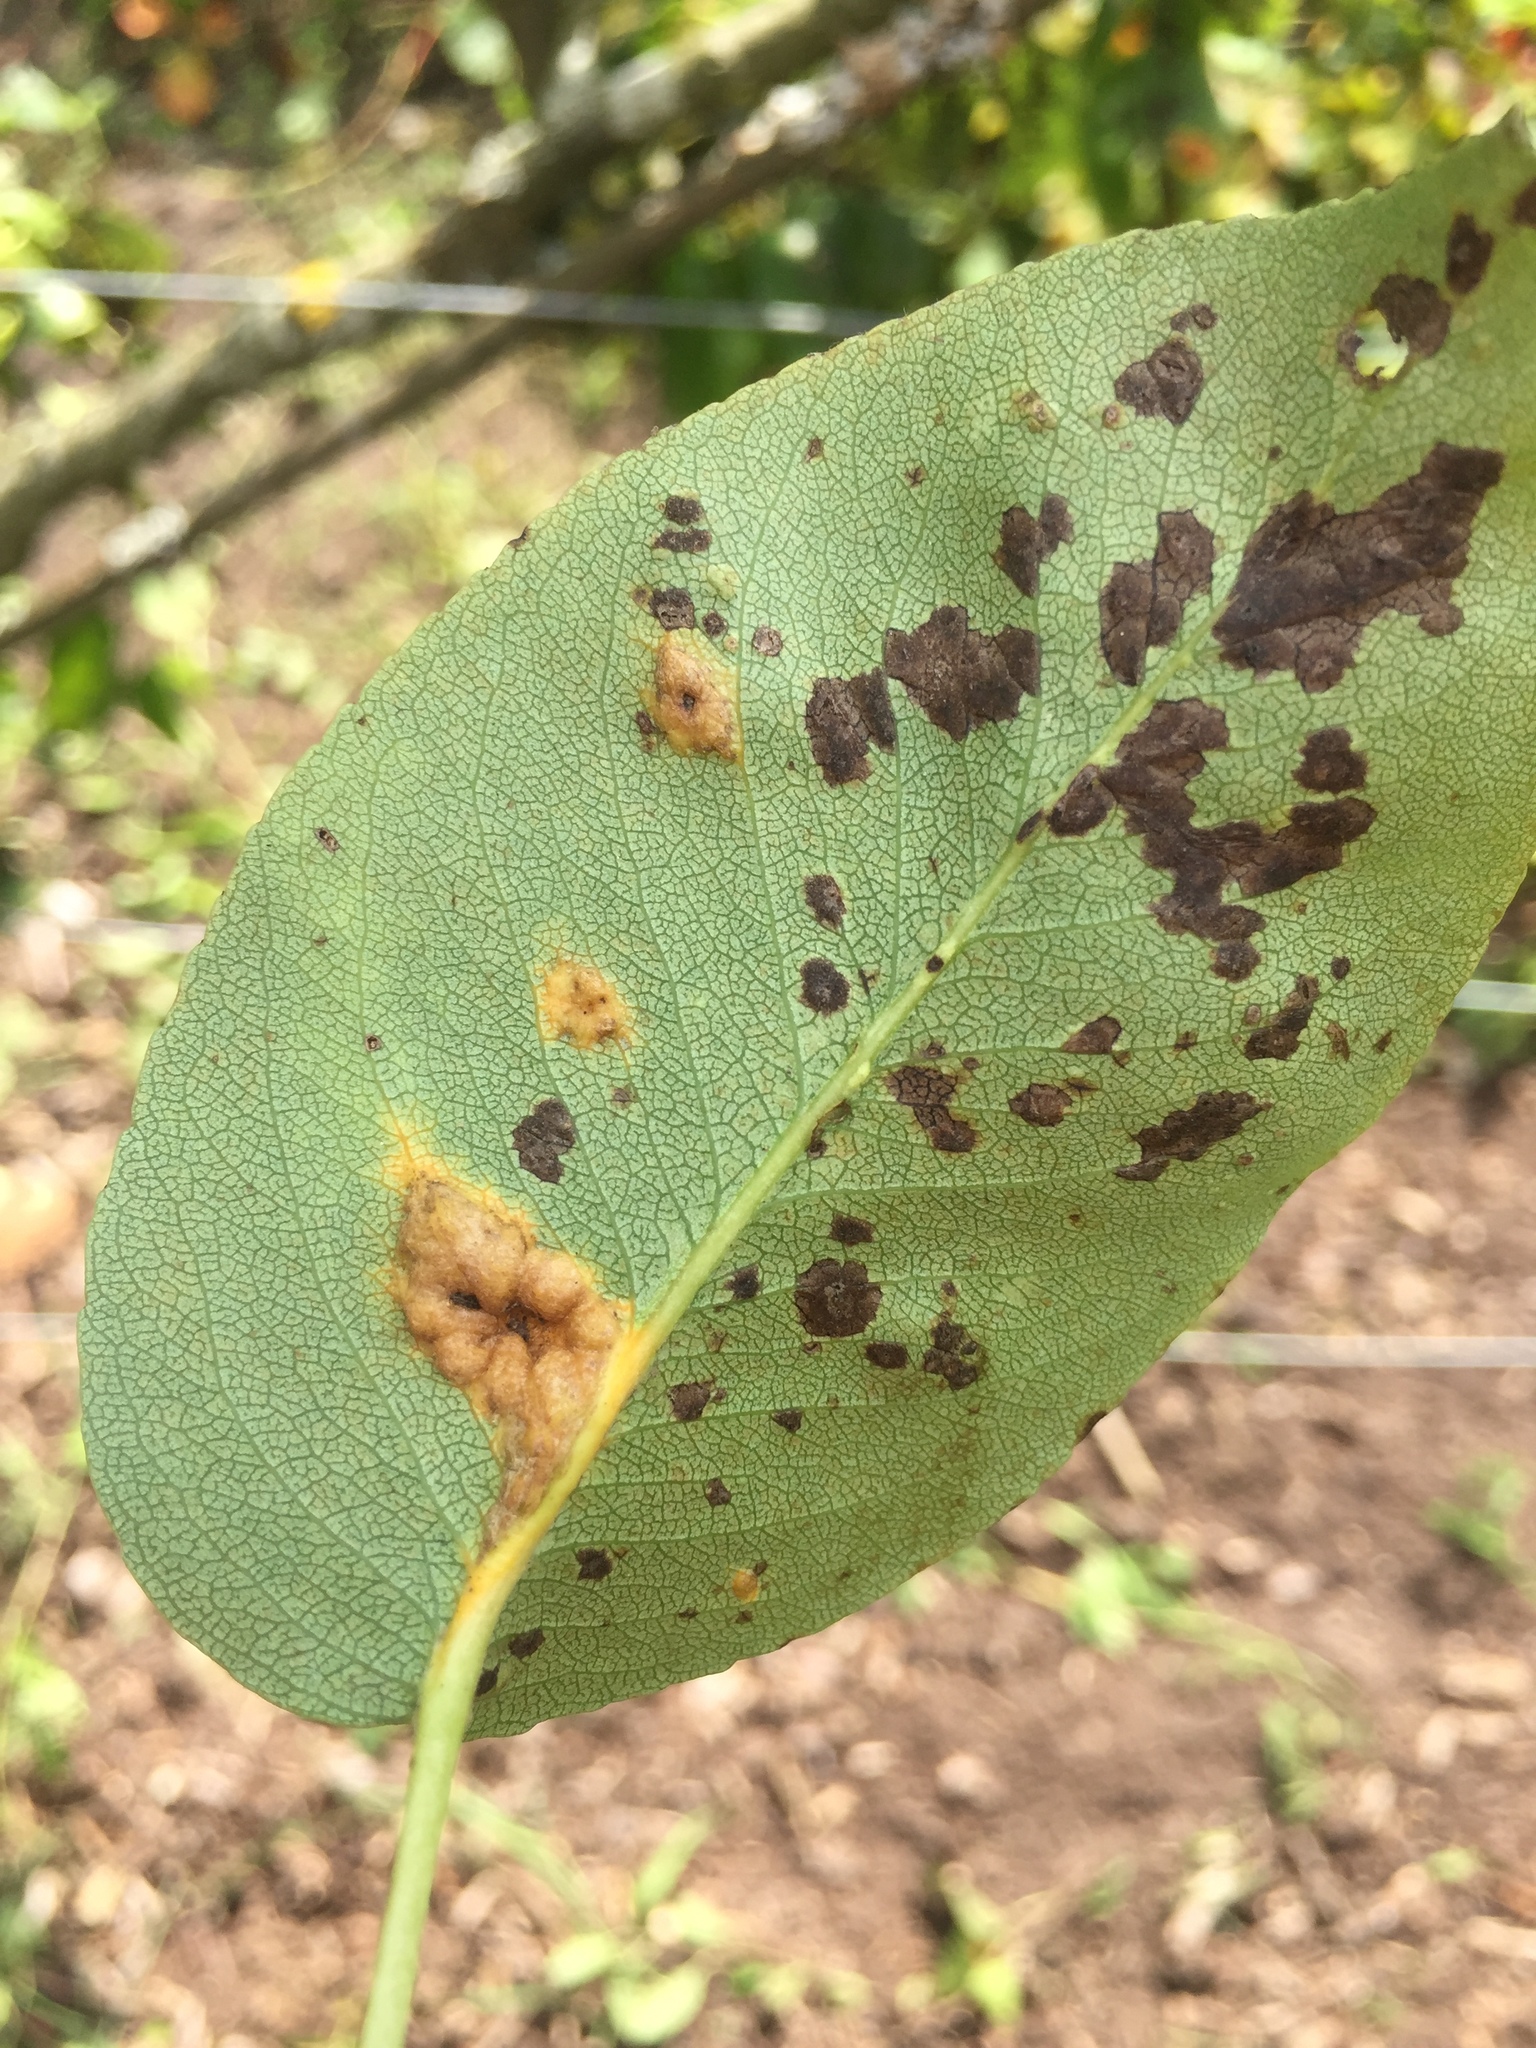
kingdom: Fungi
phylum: Basidiomycota
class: Pucciniomycetes
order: Pucciniales
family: Gymnosporangiaceae
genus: Gymnosporangium
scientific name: Gymnosporangium sabinae
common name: Pear trellis rust fungus
